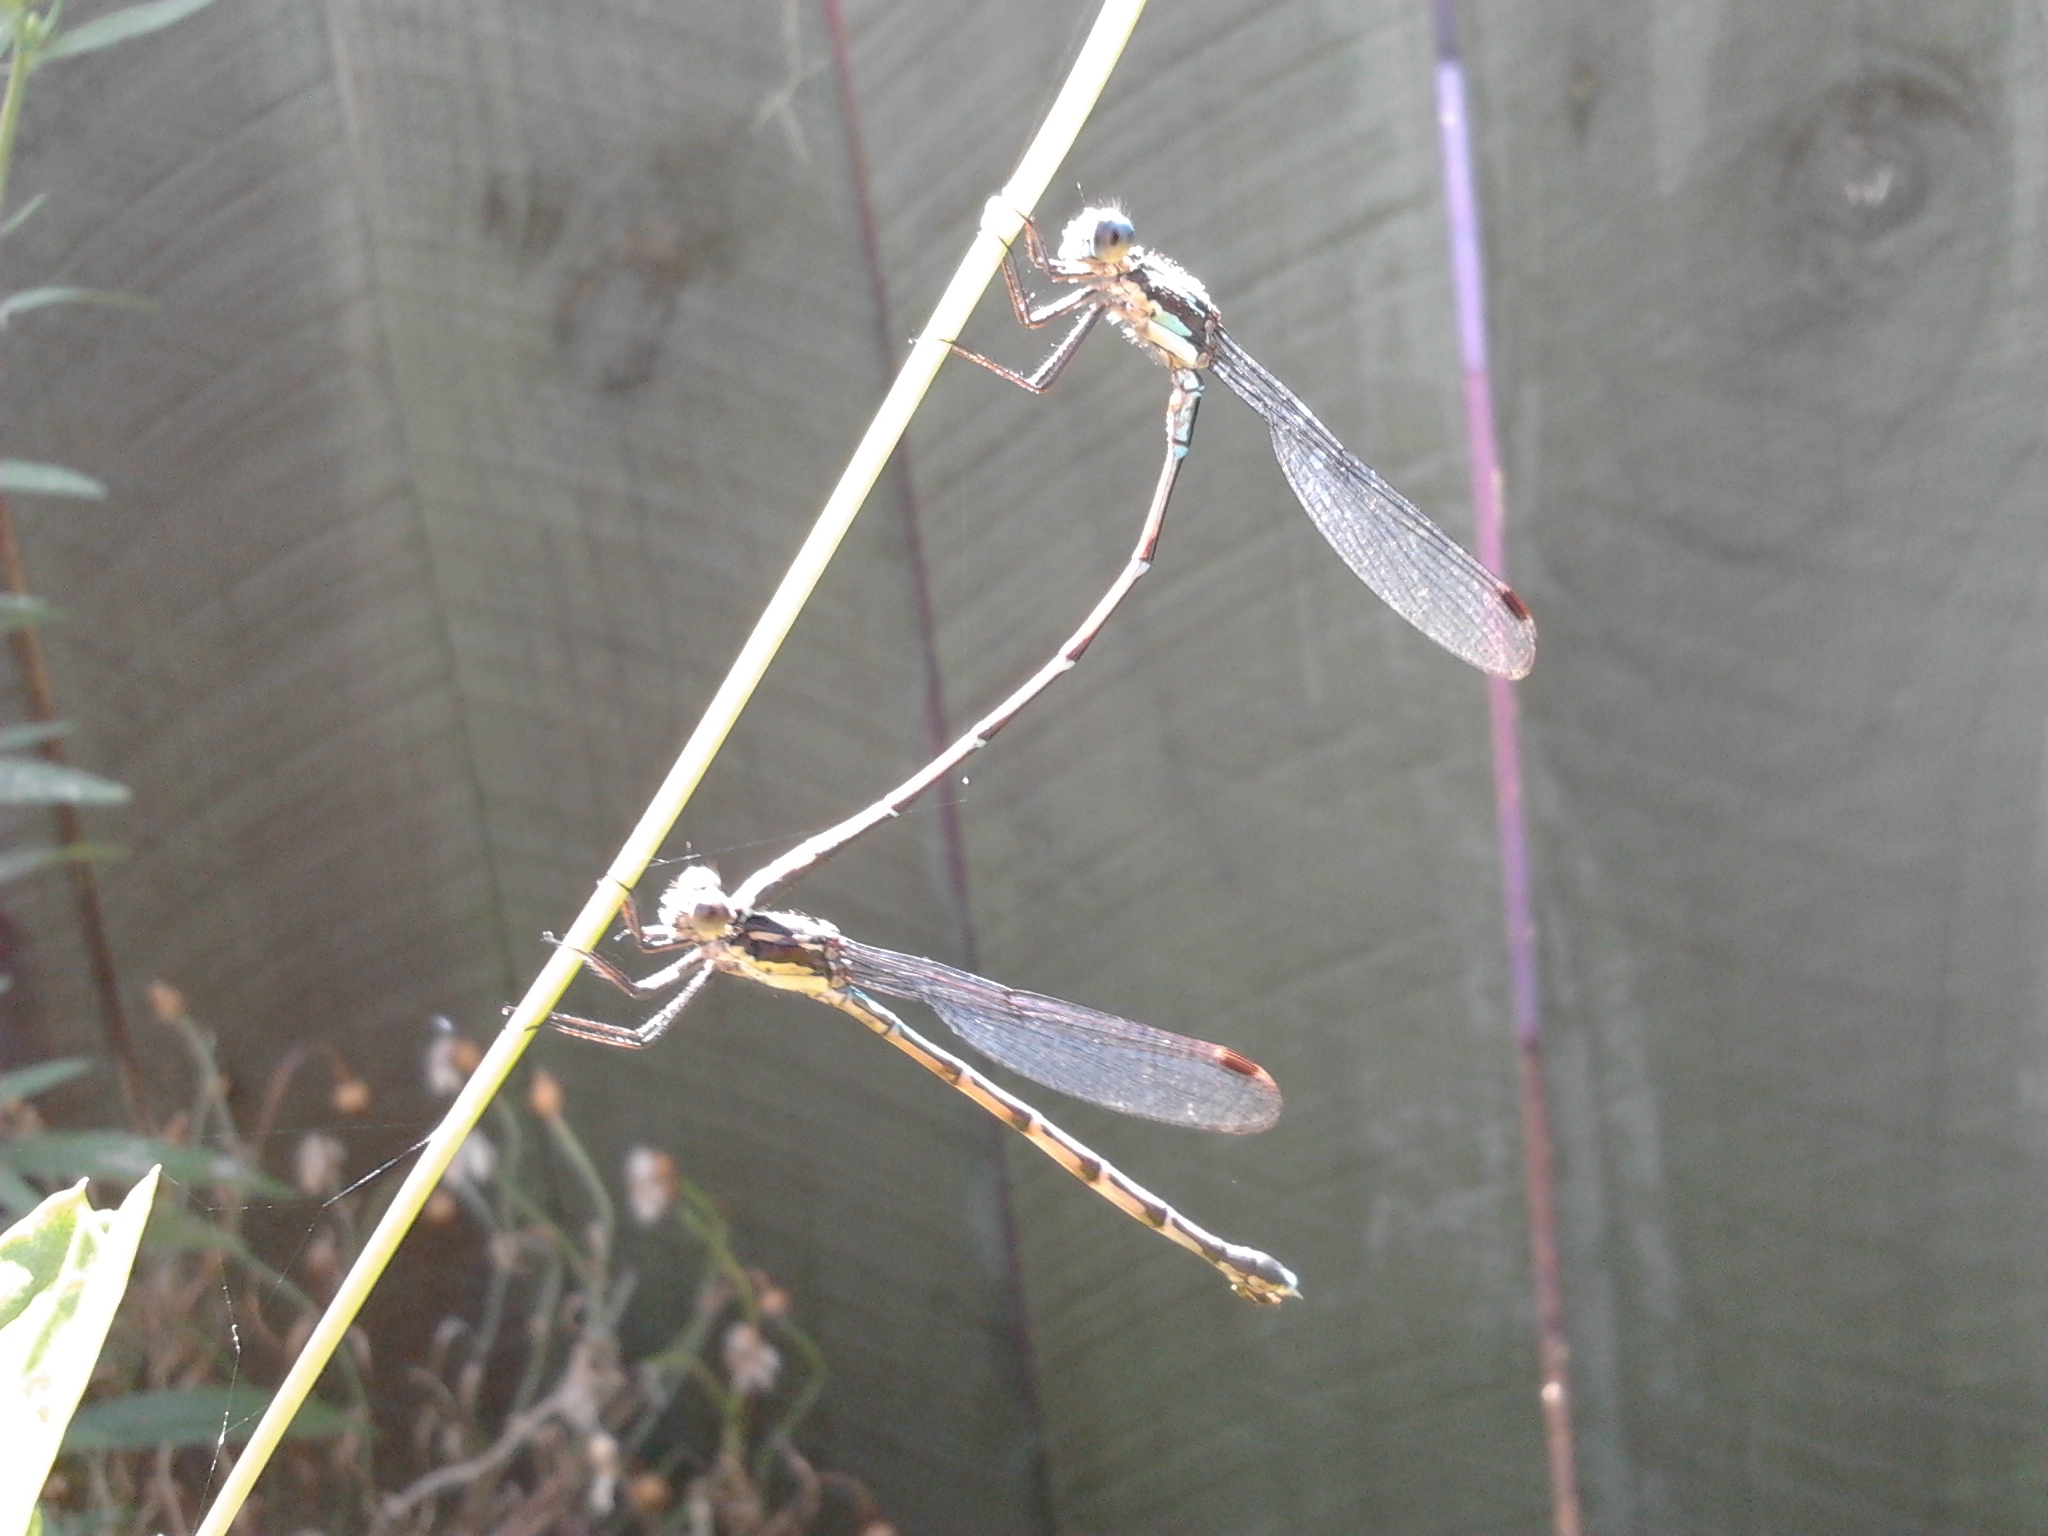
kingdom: Animalia
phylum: Arthropoda
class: Insecta
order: Odonata
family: Lestidae
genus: Austrolestes
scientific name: Austrolestes colensonis
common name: Blue damselfly
